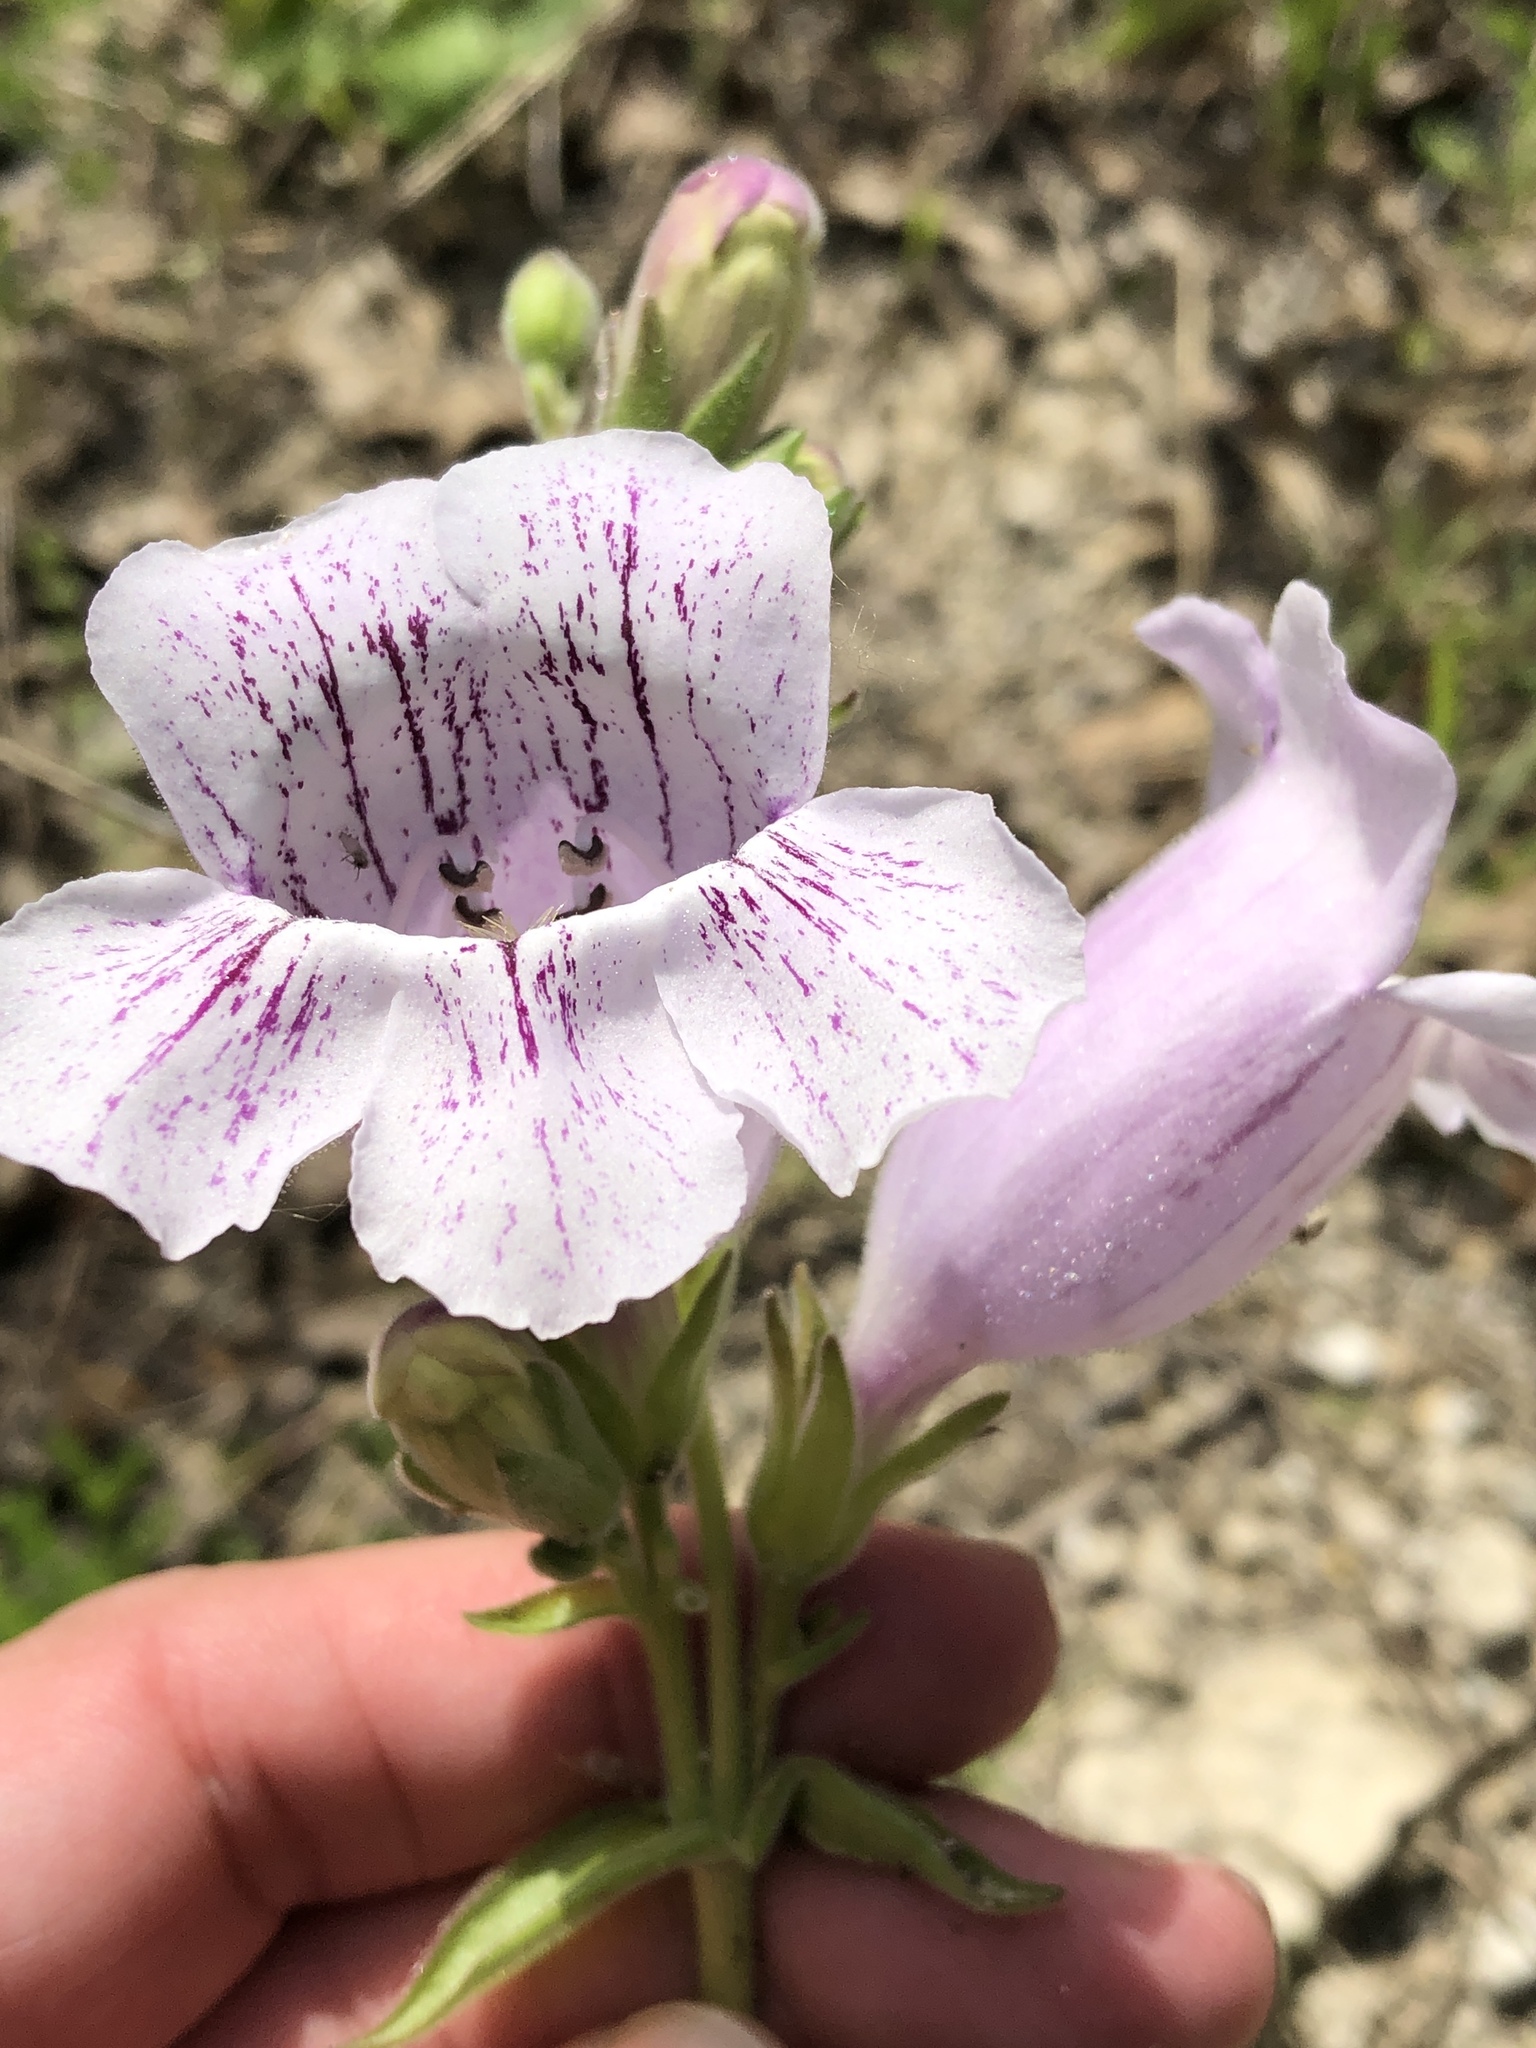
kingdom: Plantae
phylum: Tracheophyta
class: Magnoliopsida
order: Lamiales
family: Plantaginaceae
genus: Penstemon
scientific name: Penstemon cobaea
